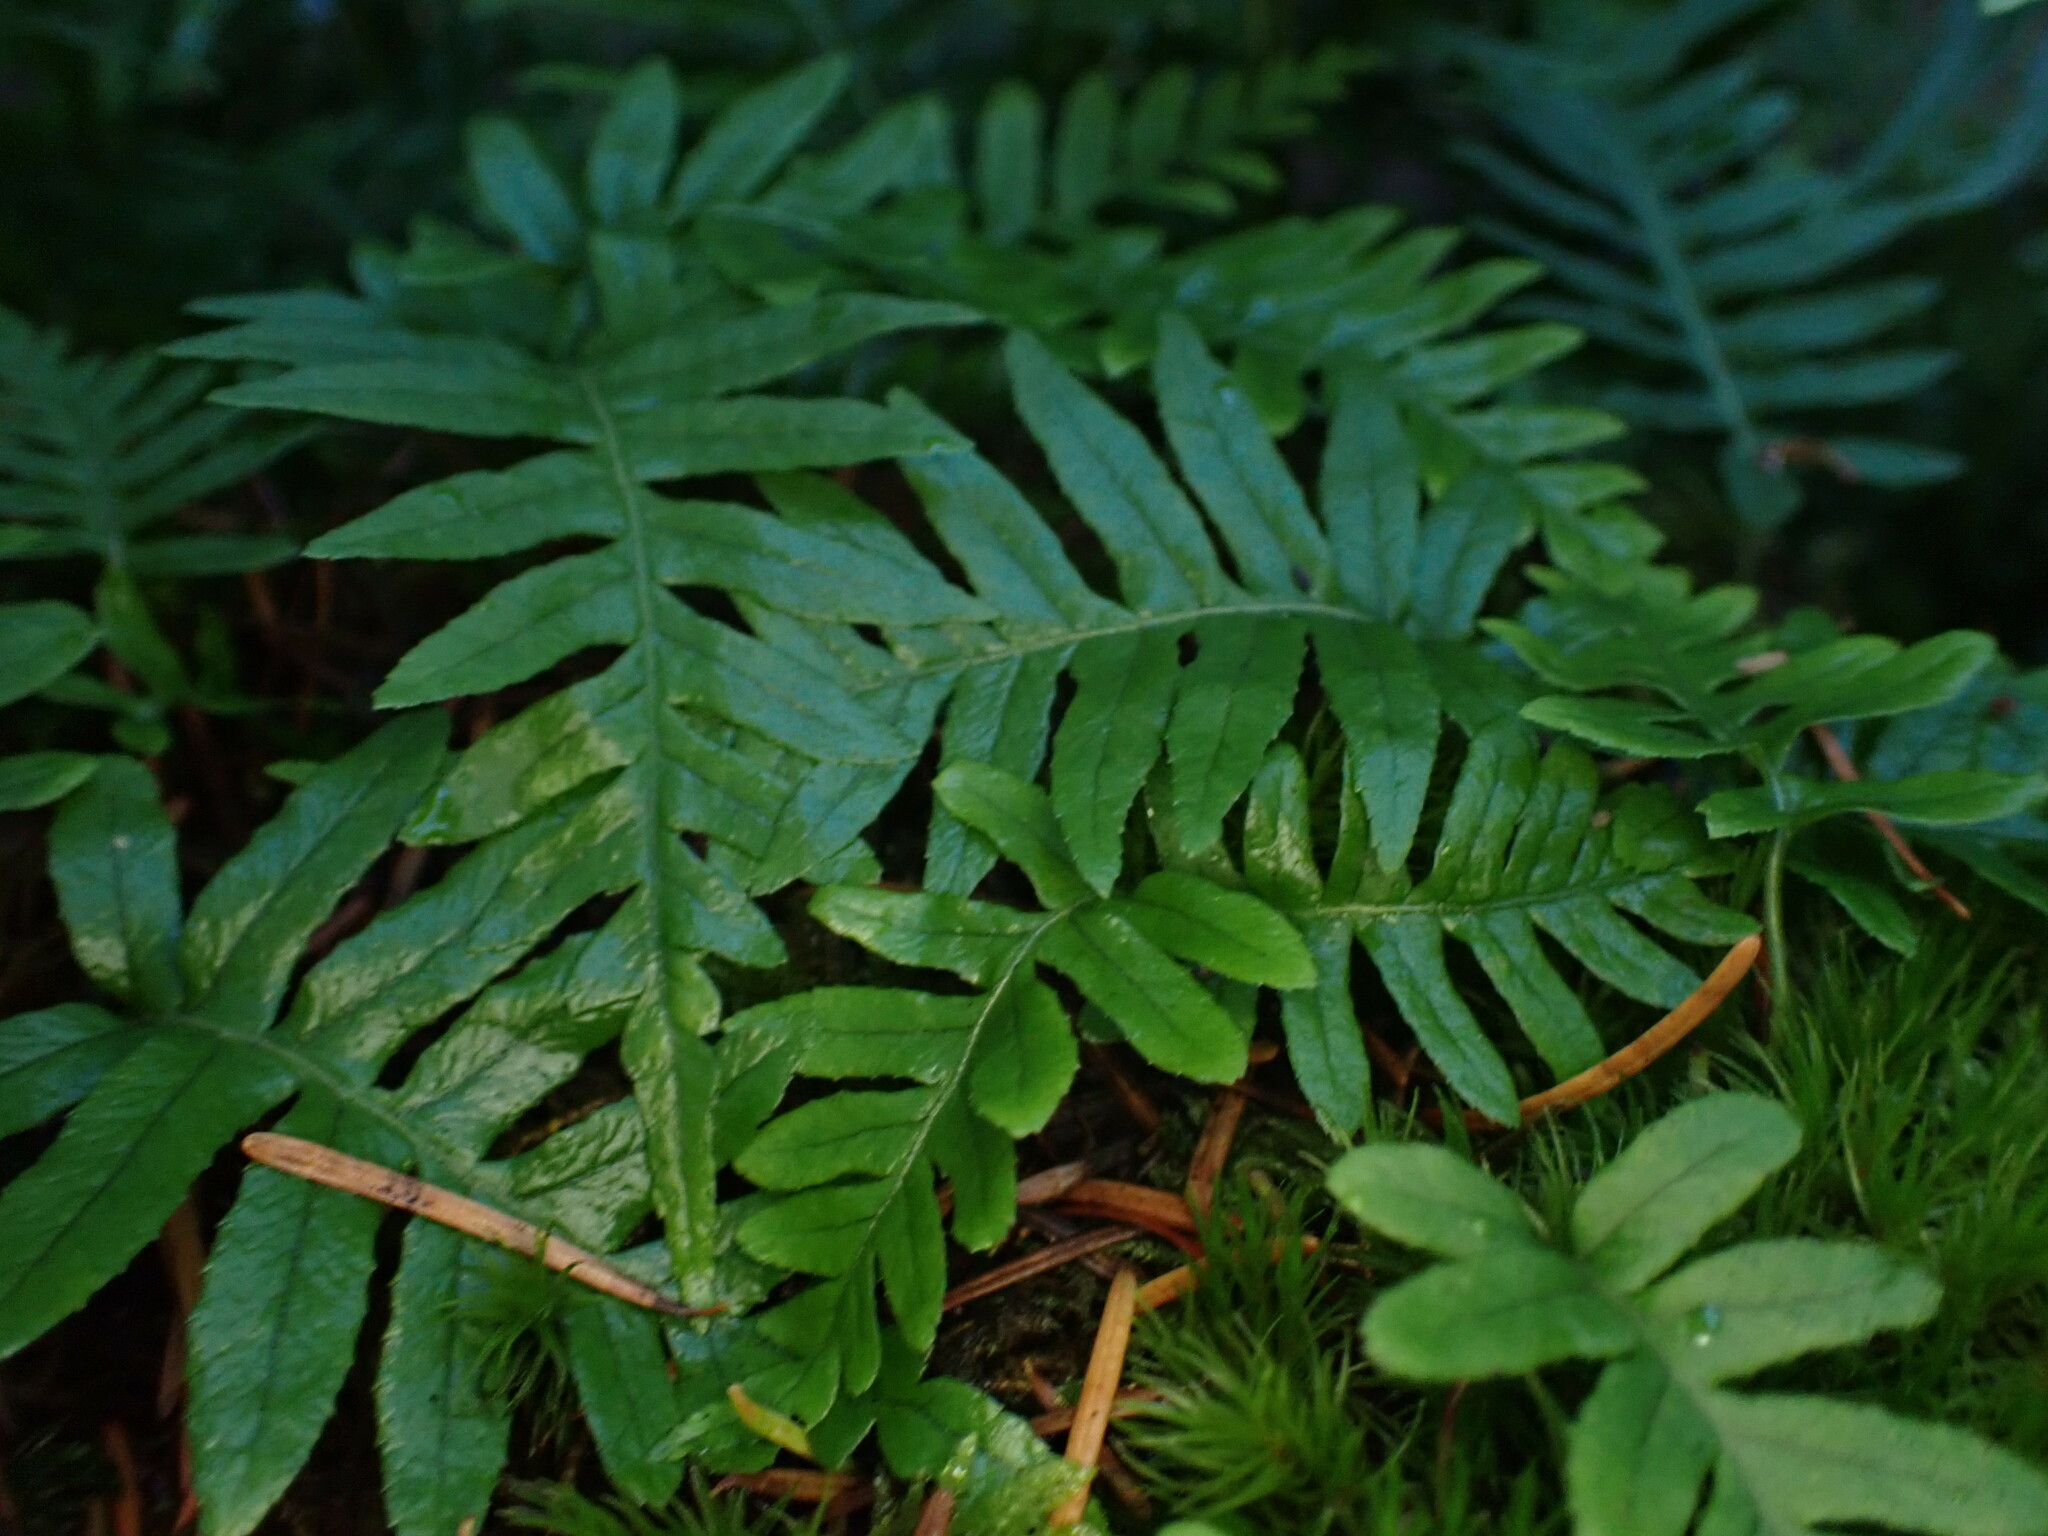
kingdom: Plantae
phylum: Tracheophyta
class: Polypodiopsida
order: Polypodiales
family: Polypodiaceae
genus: Polypodium
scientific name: Polypodium glycyrrhiza
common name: Licorice fern
